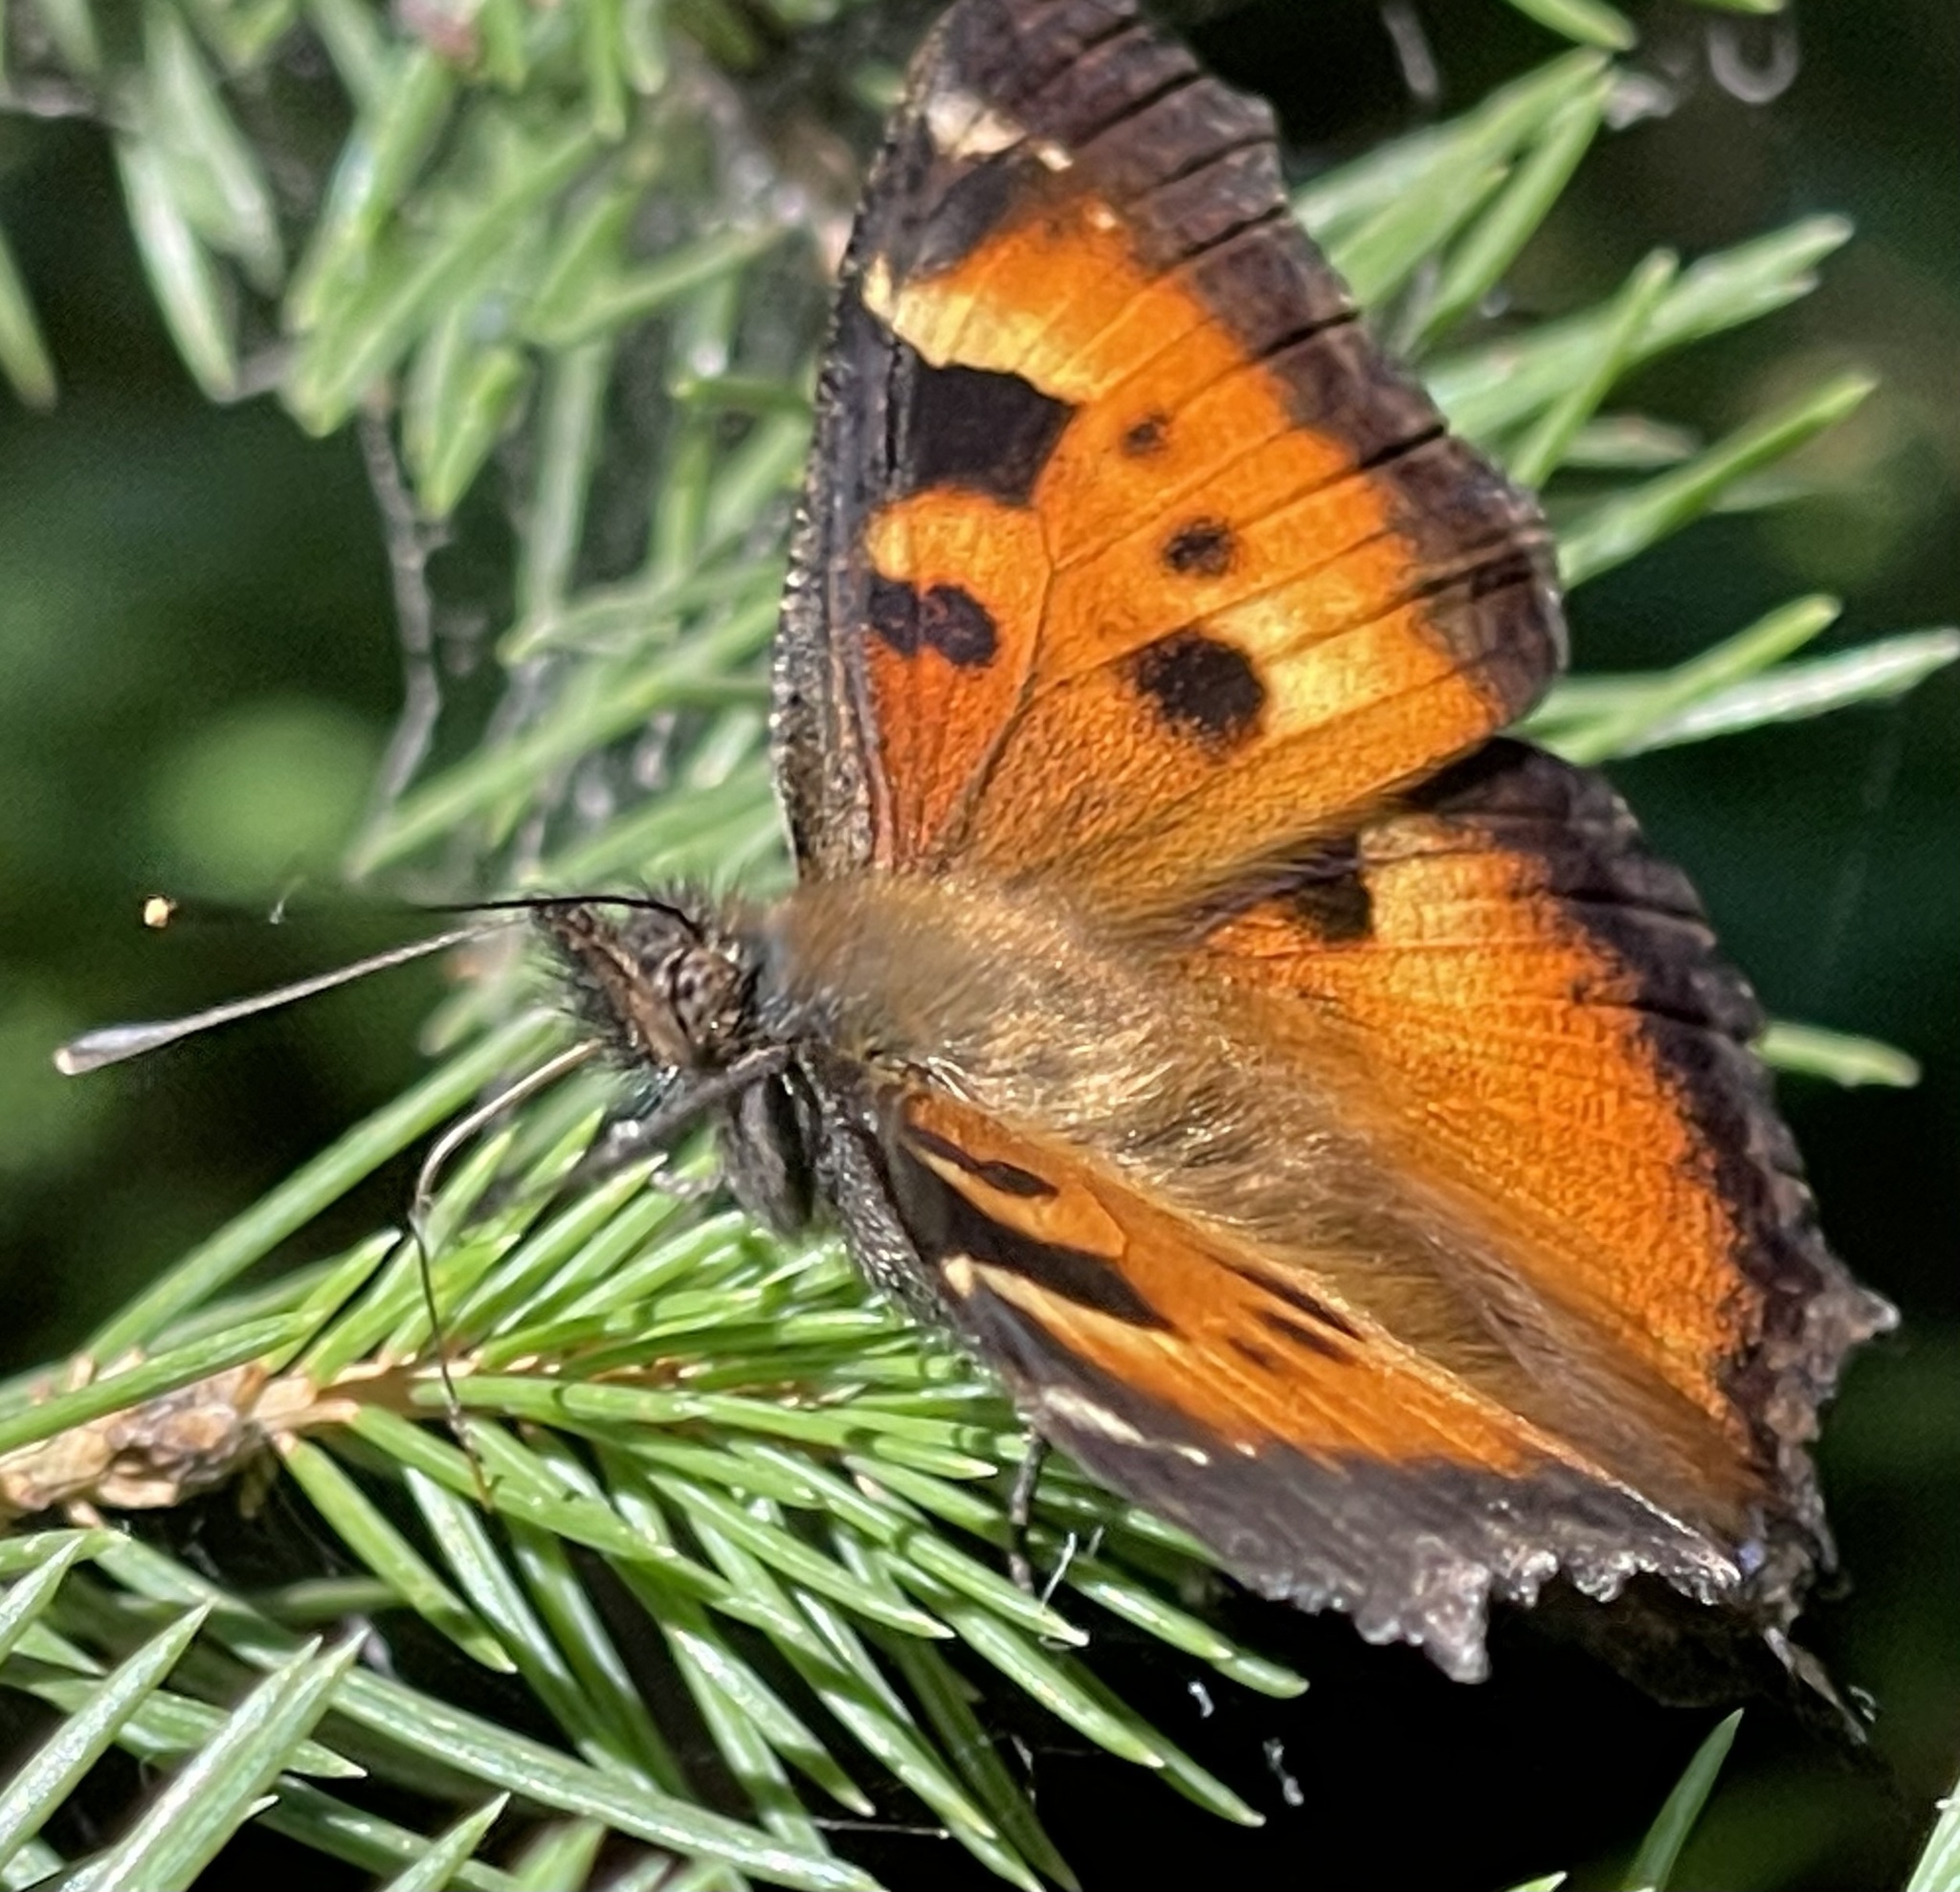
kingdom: Animalia
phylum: Arthropoda
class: Insecta
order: Lepidoptera
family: Nymphalidae
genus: Nymphalis
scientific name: Nymphalis californica
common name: California tortoiseshell
